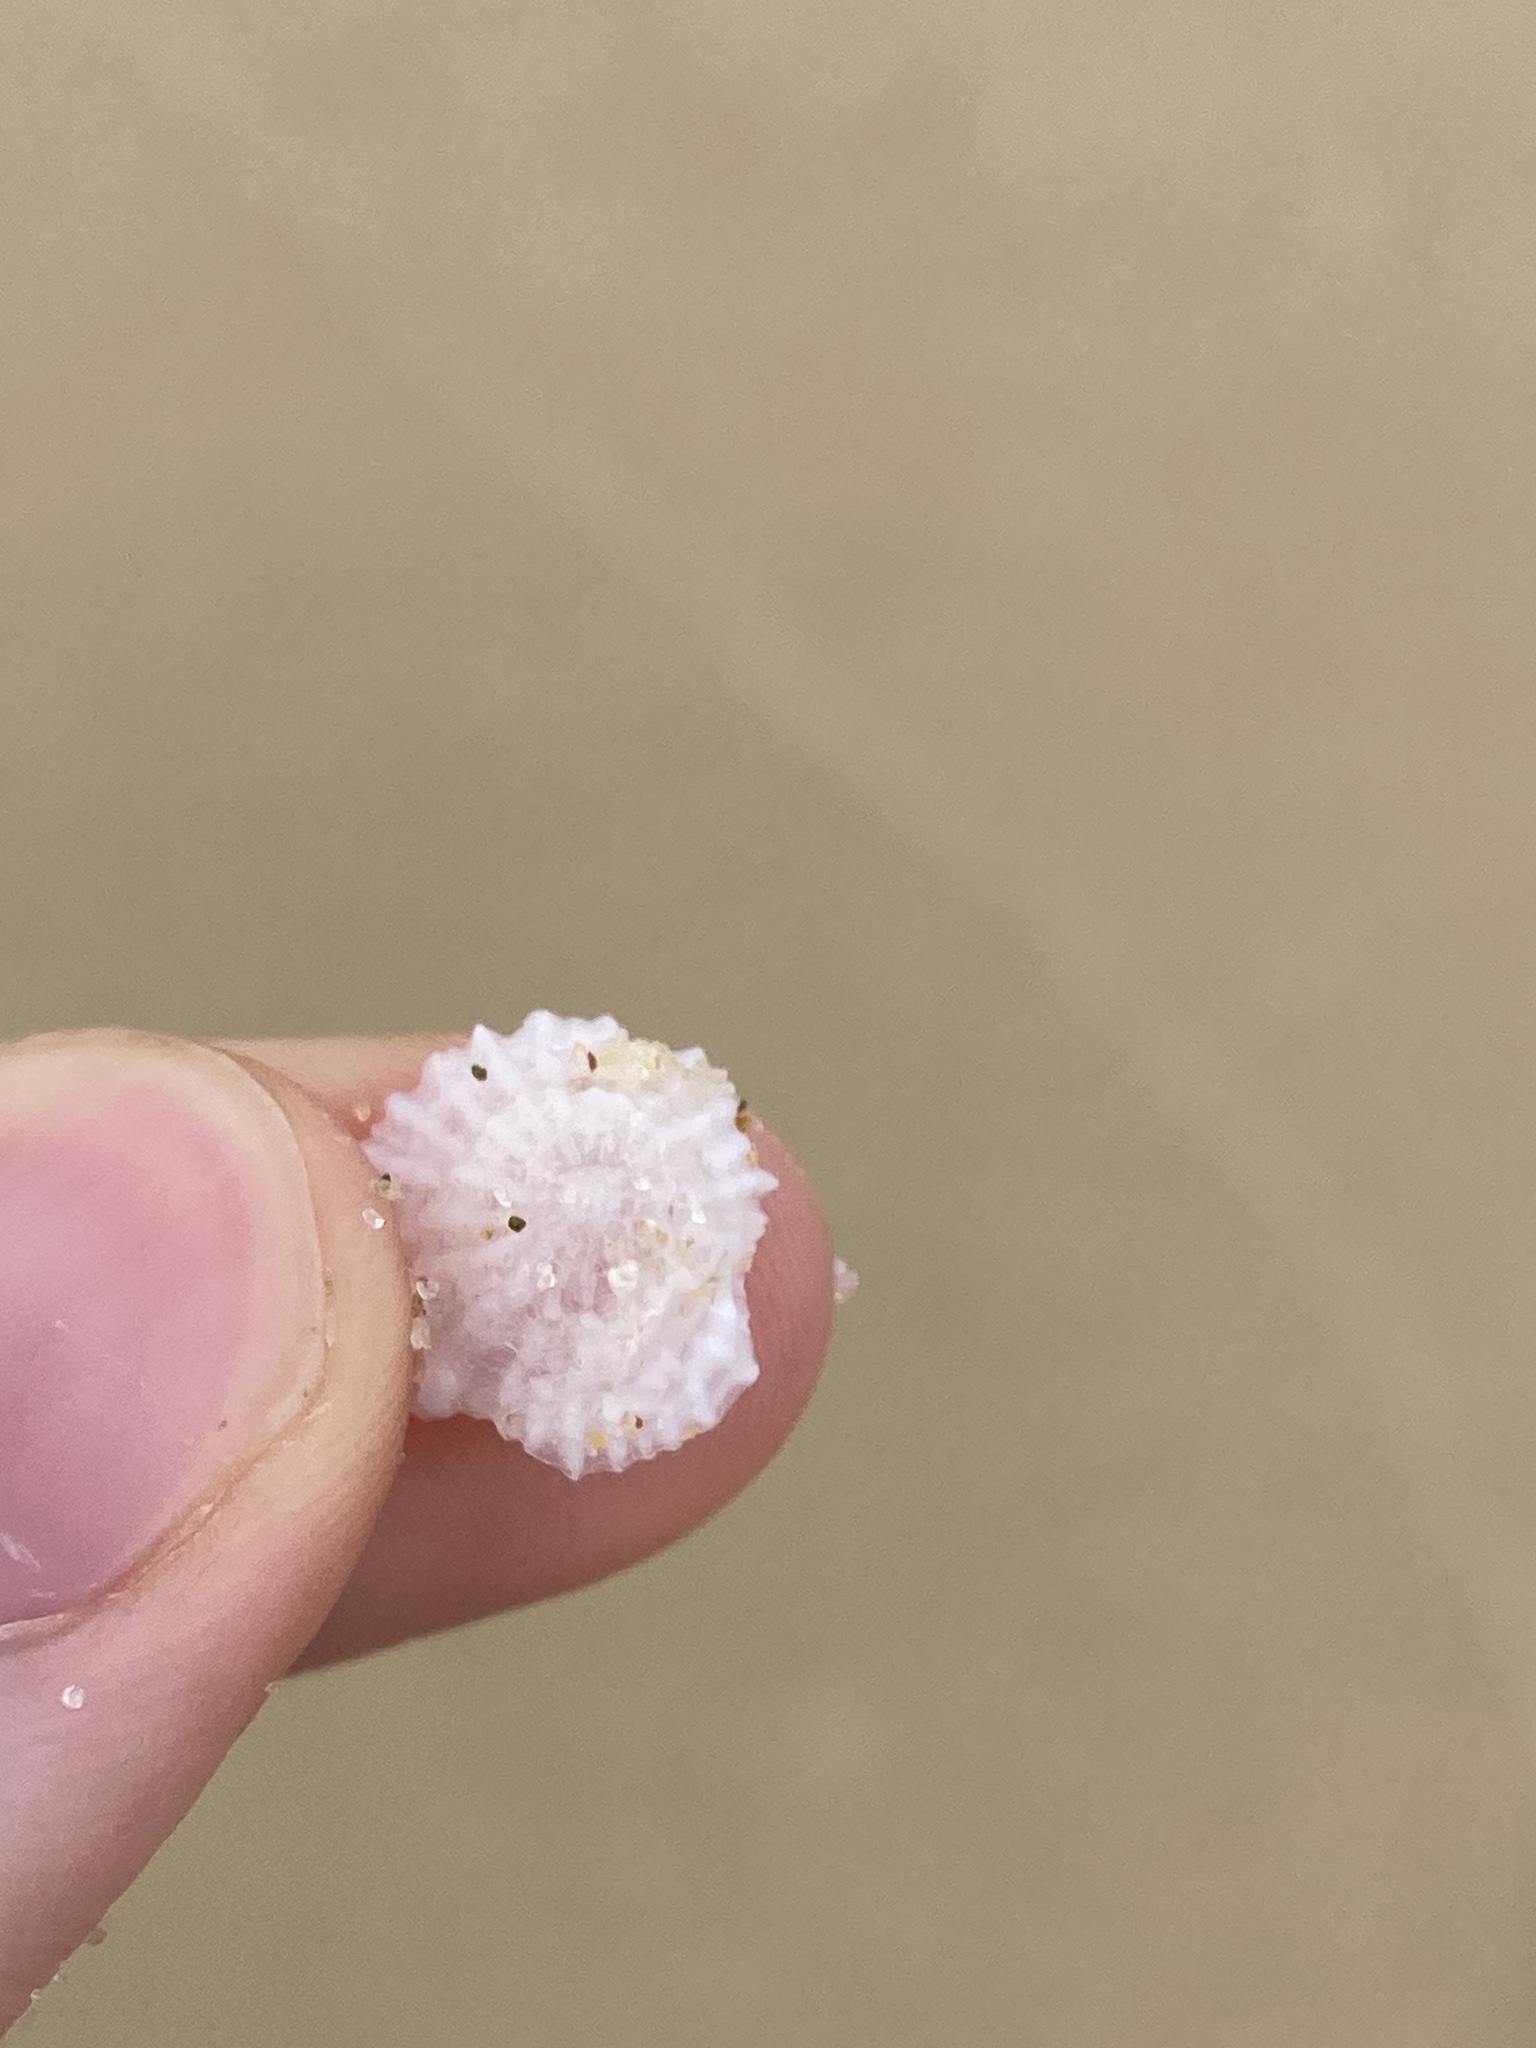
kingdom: Animalia
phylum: Mollusca
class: Gastropoda
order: Ellobiida
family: Trimusculidae
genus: Trimusculus
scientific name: Trimusculus conicus
